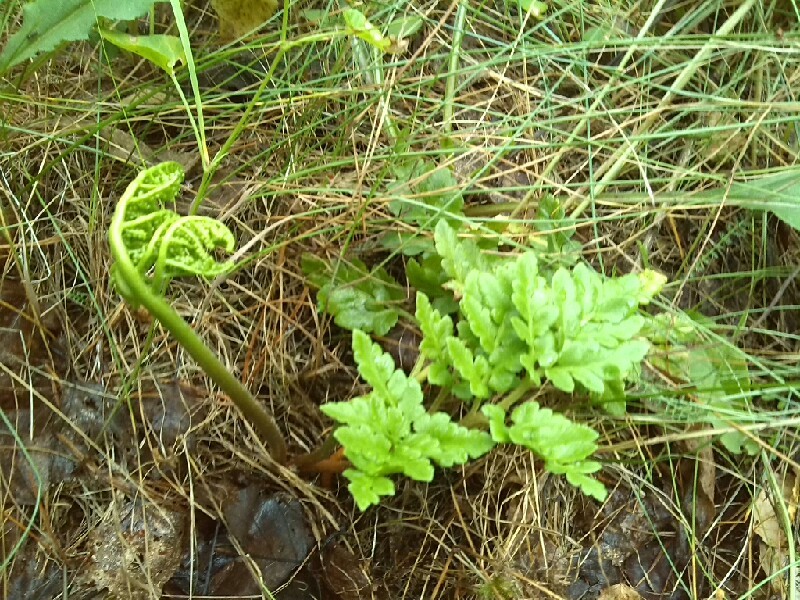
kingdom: Plantae
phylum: Tracheophyta
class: Polypodiopsida
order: Ophioglossales
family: Ophioglossaceae
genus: Sceptridium
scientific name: Sceptridium multifidum
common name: Leathery grape fern
